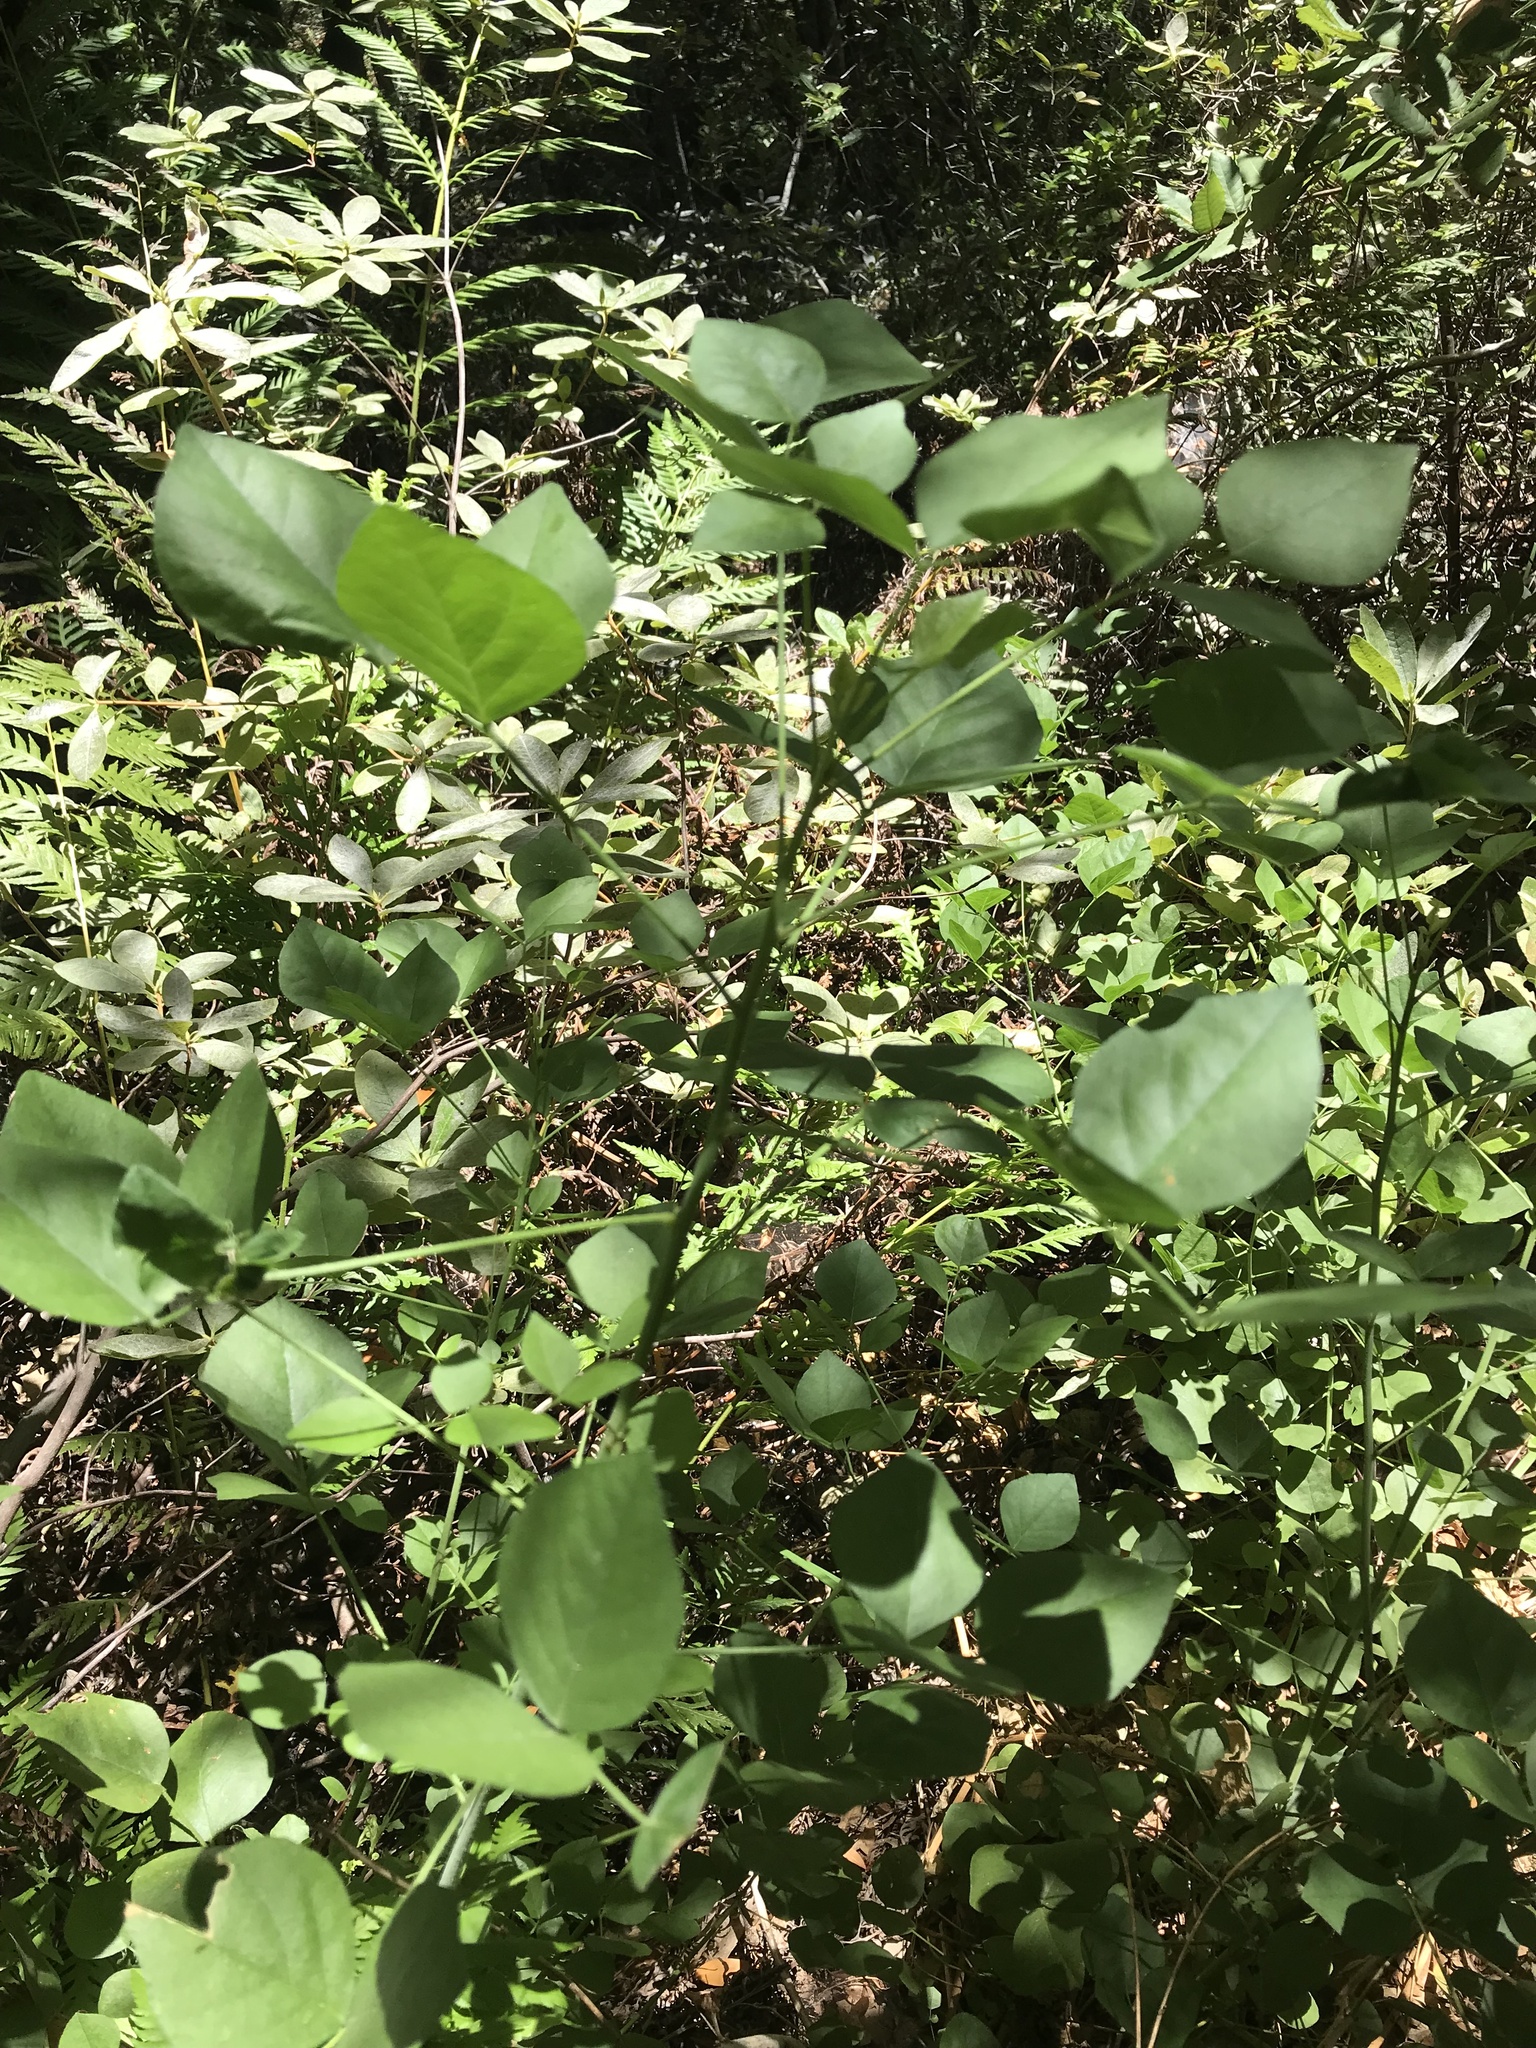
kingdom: Plantae
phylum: Tracheophyta
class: Magnoliopsida
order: Fabales
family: Fabaceae
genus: Hoita
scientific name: Hoita macrostachya
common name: Leatherroot
